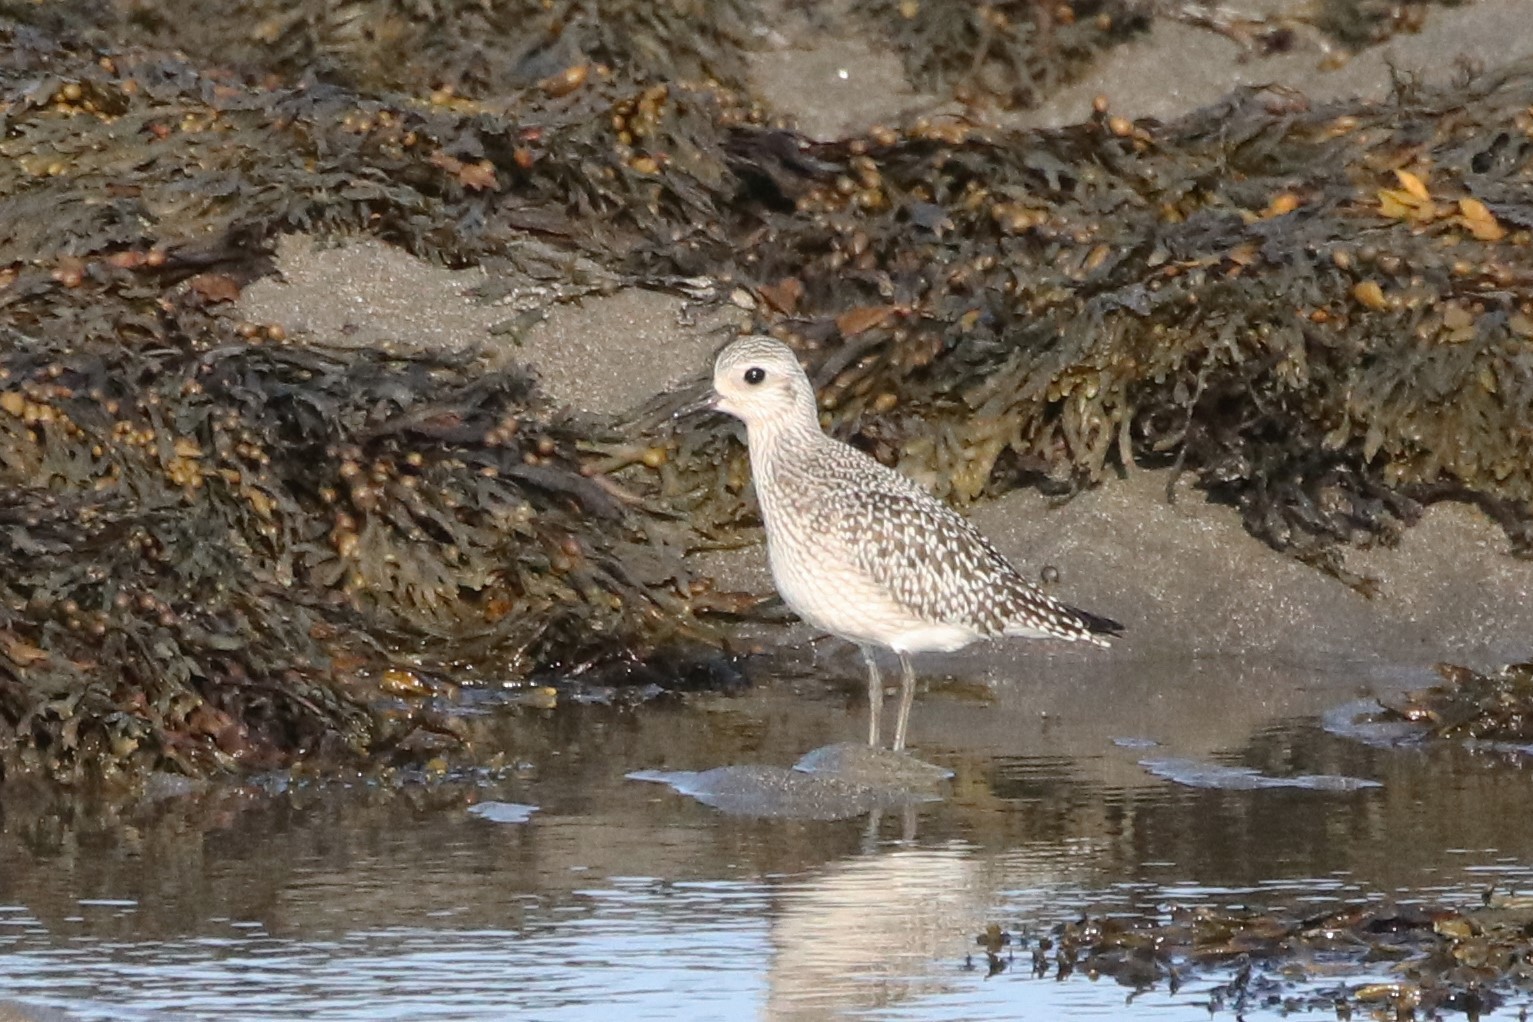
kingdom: Animalia
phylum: Chordata
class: Aves
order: Charadriiformes
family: Charadriidae
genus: Pluvialis
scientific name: Pluvialis squatarola
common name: Grey plover
